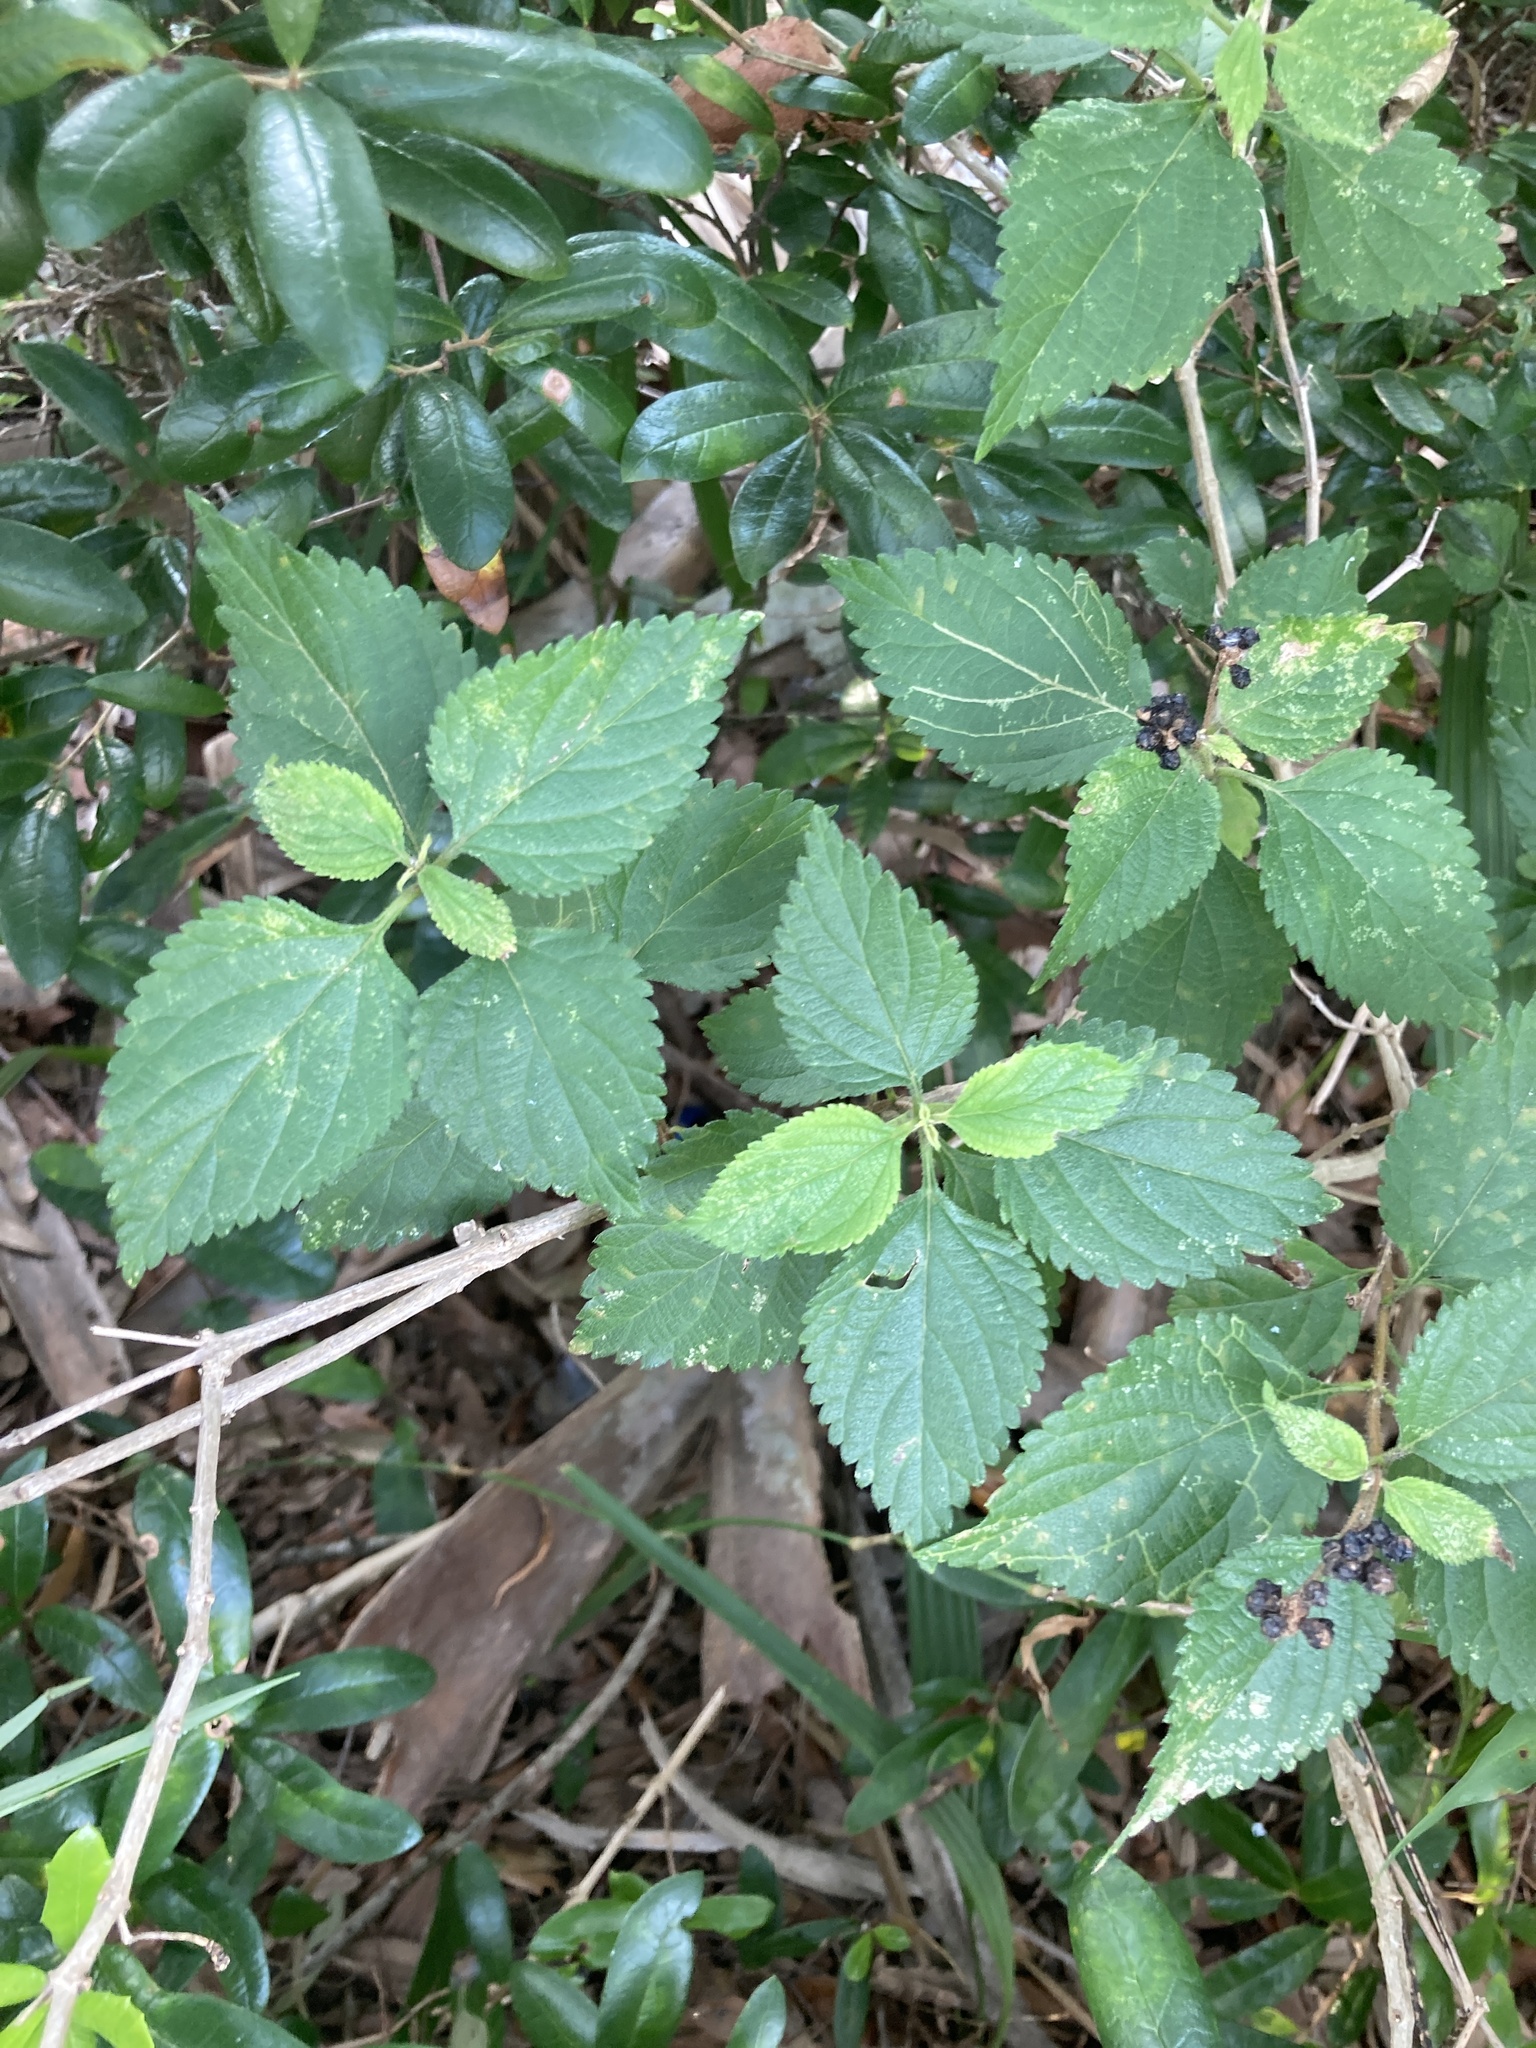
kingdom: Plantae
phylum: Tracheophyta
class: Magnoliopsida
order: Lamiales
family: Verbenaceae
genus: Lantana
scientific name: Lantana strigocamara
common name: Lantana
